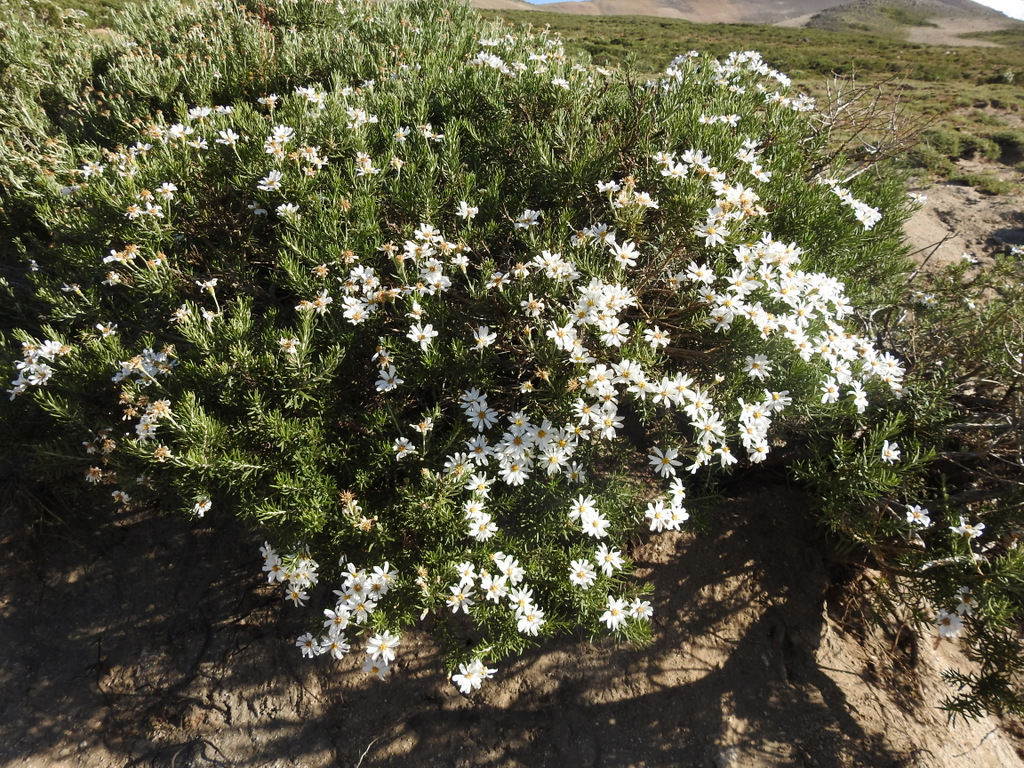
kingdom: Plantae
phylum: Tracheophyta
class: Magnoliopsida
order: Asterales
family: Asteraceae
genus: Chiliotrichum
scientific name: Chiliotrichum diffusum
